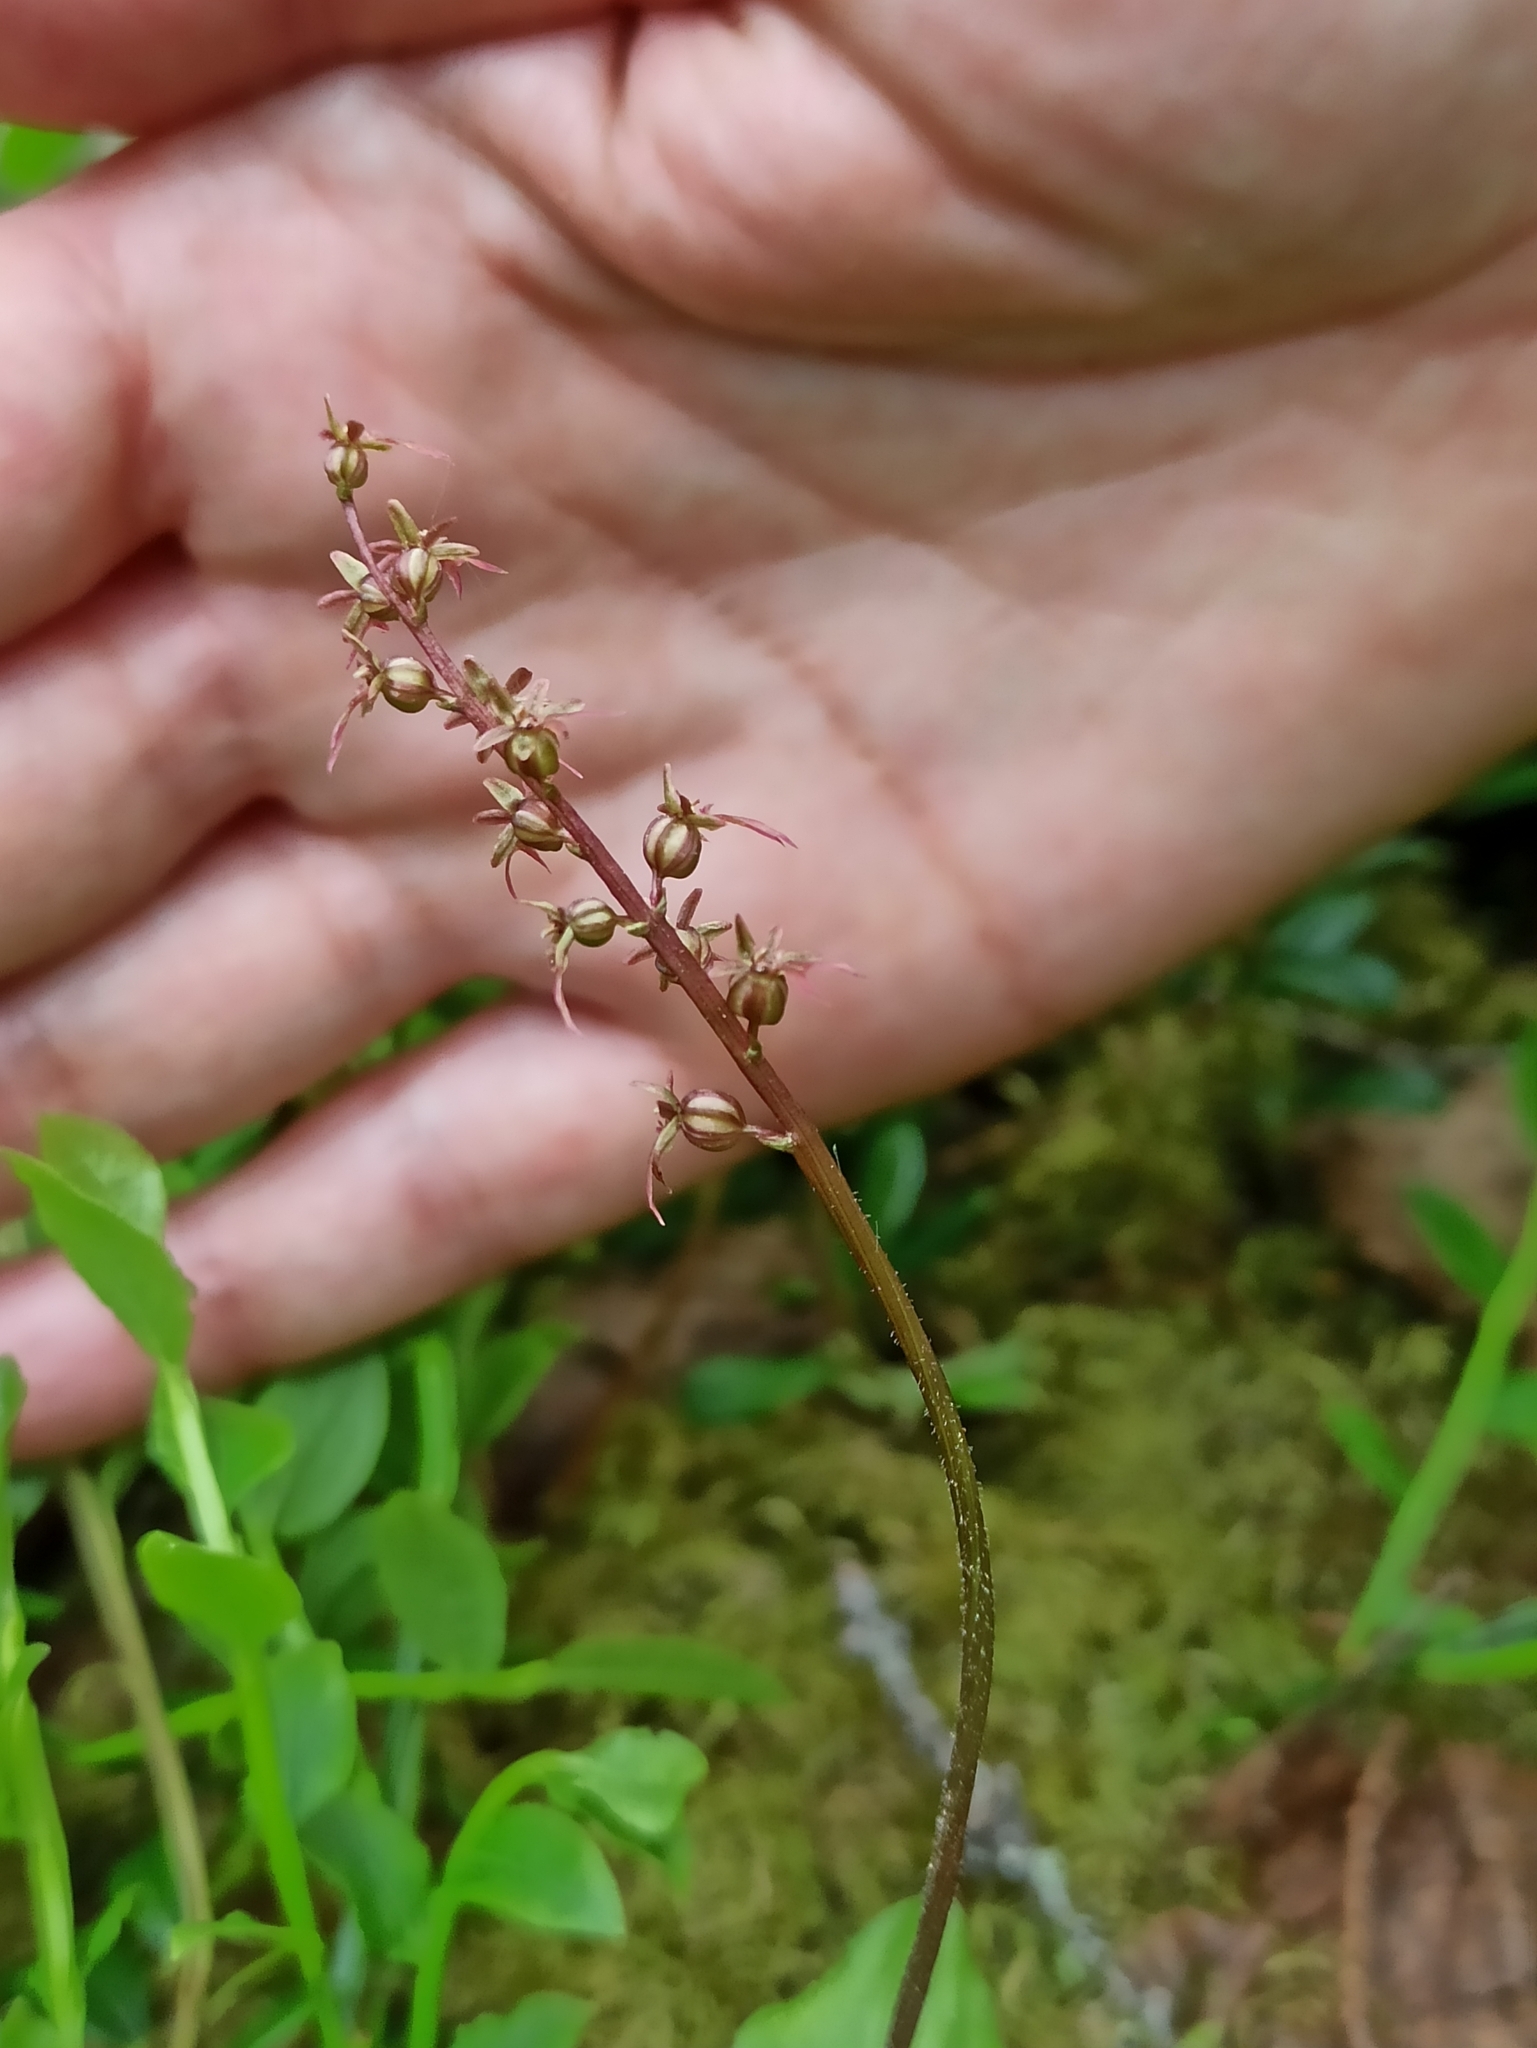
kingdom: Plantae
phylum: Tracheophyta
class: Liliopsida
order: Asparagales
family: Orchidaceae
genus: Neottia
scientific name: Neottia cordata
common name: Lesser twayblade
